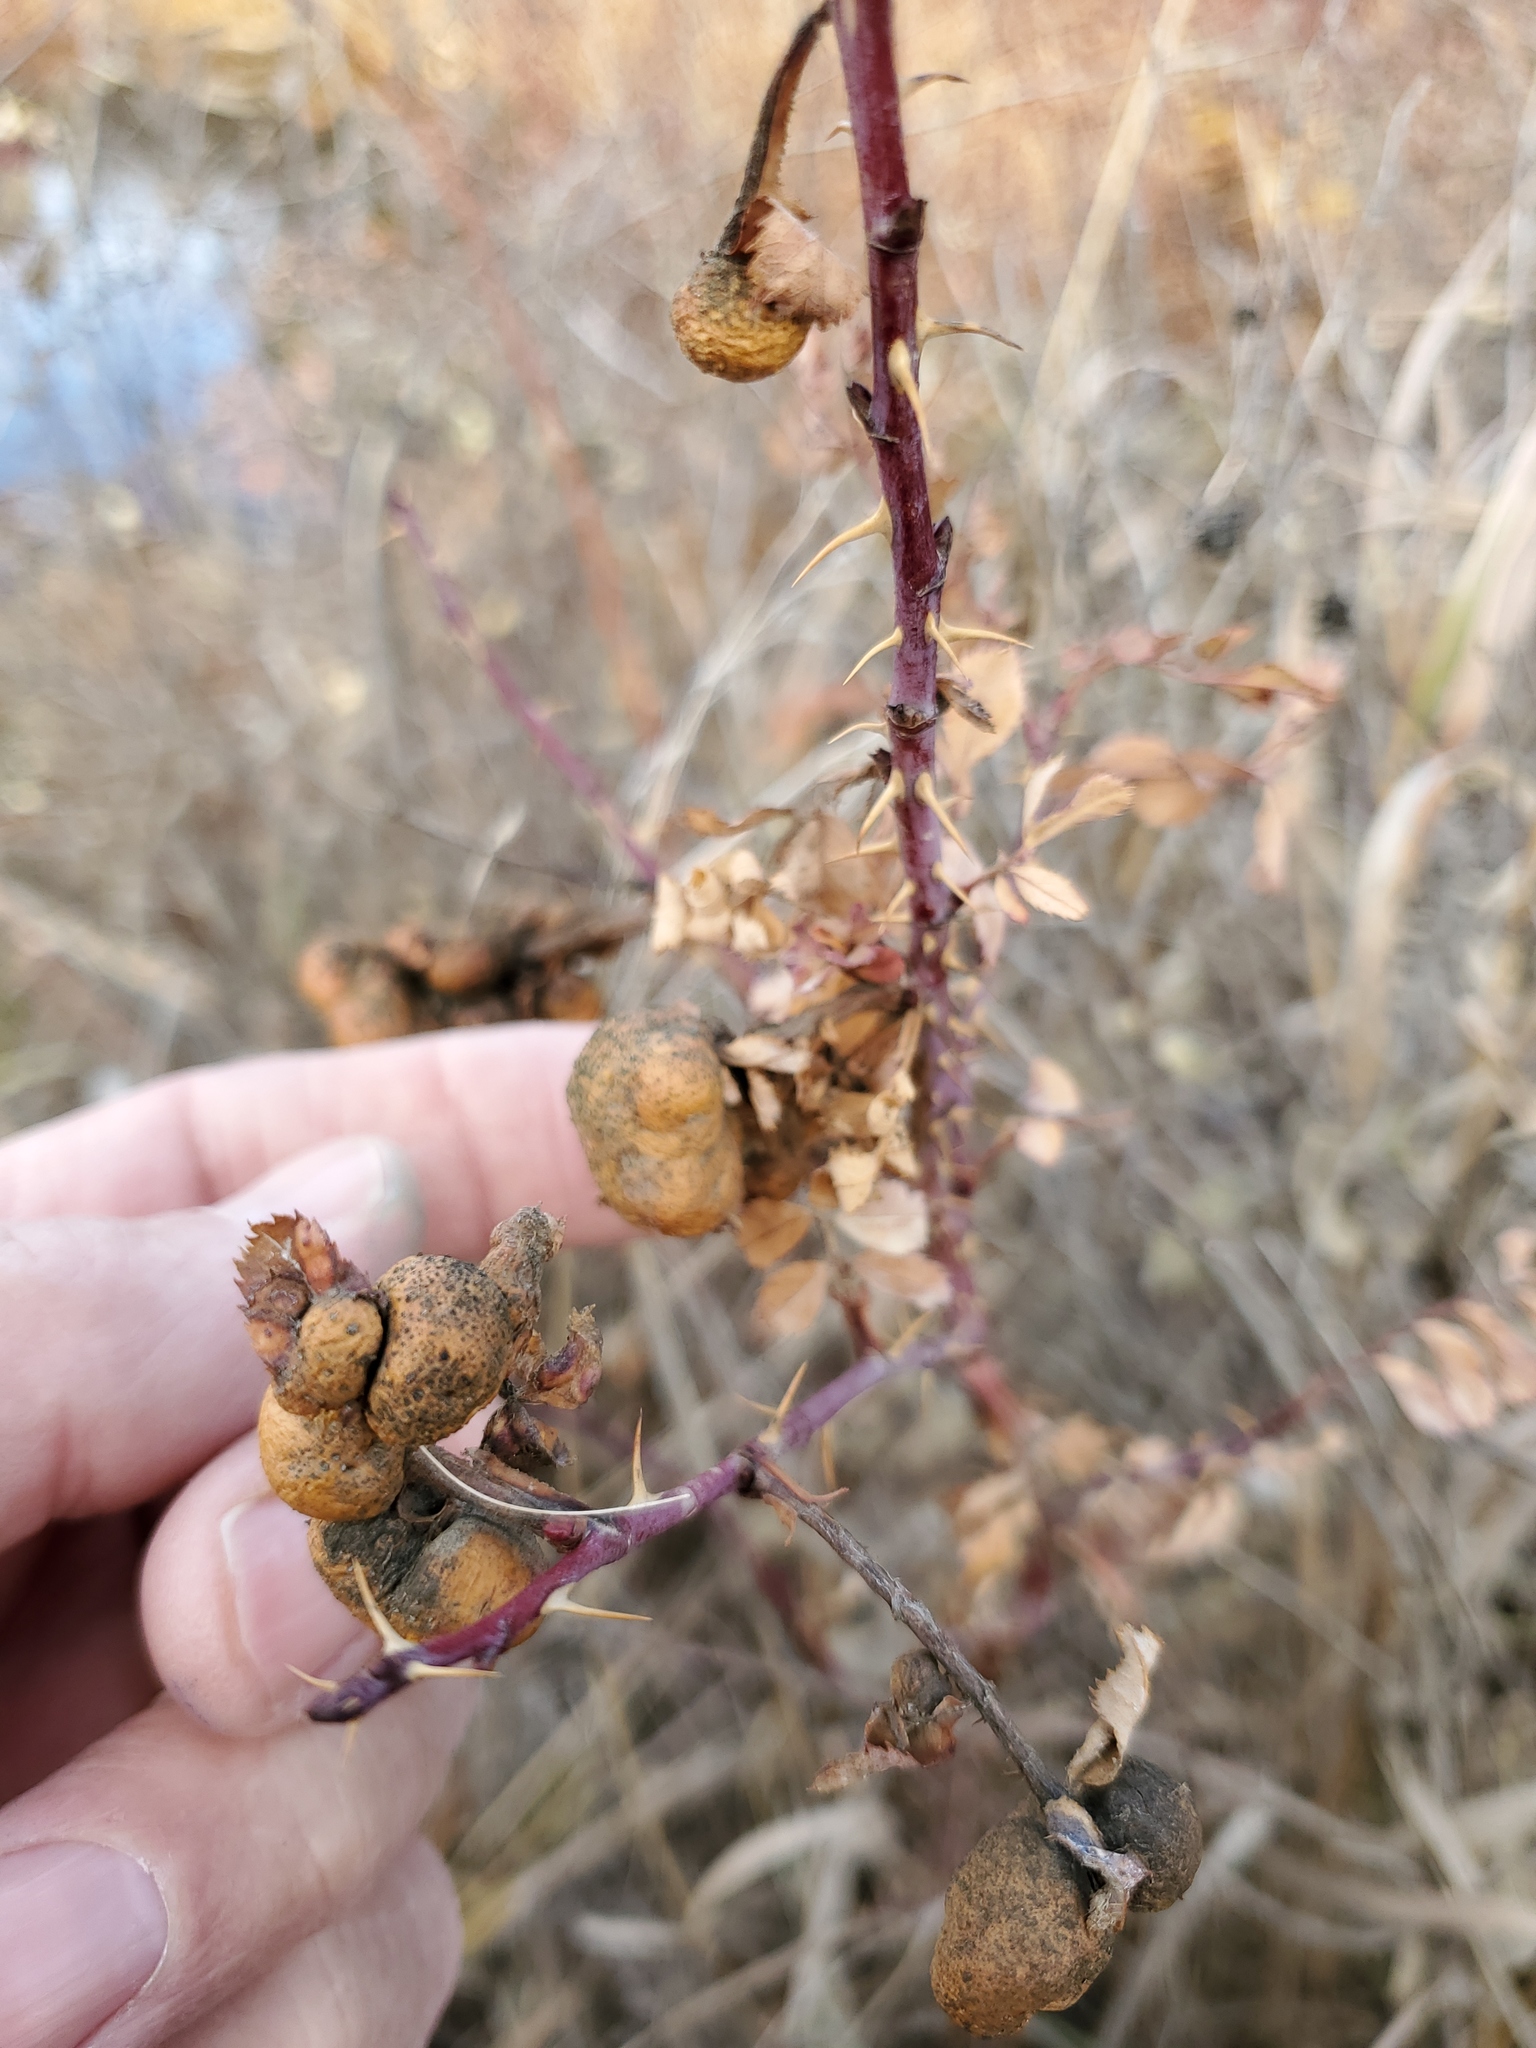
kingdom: Animalia
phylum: Arthropoda
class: Insecta
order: Hymenoptera
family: Cynipidae
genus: Diplolepis
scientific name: Diplolepis ignota
